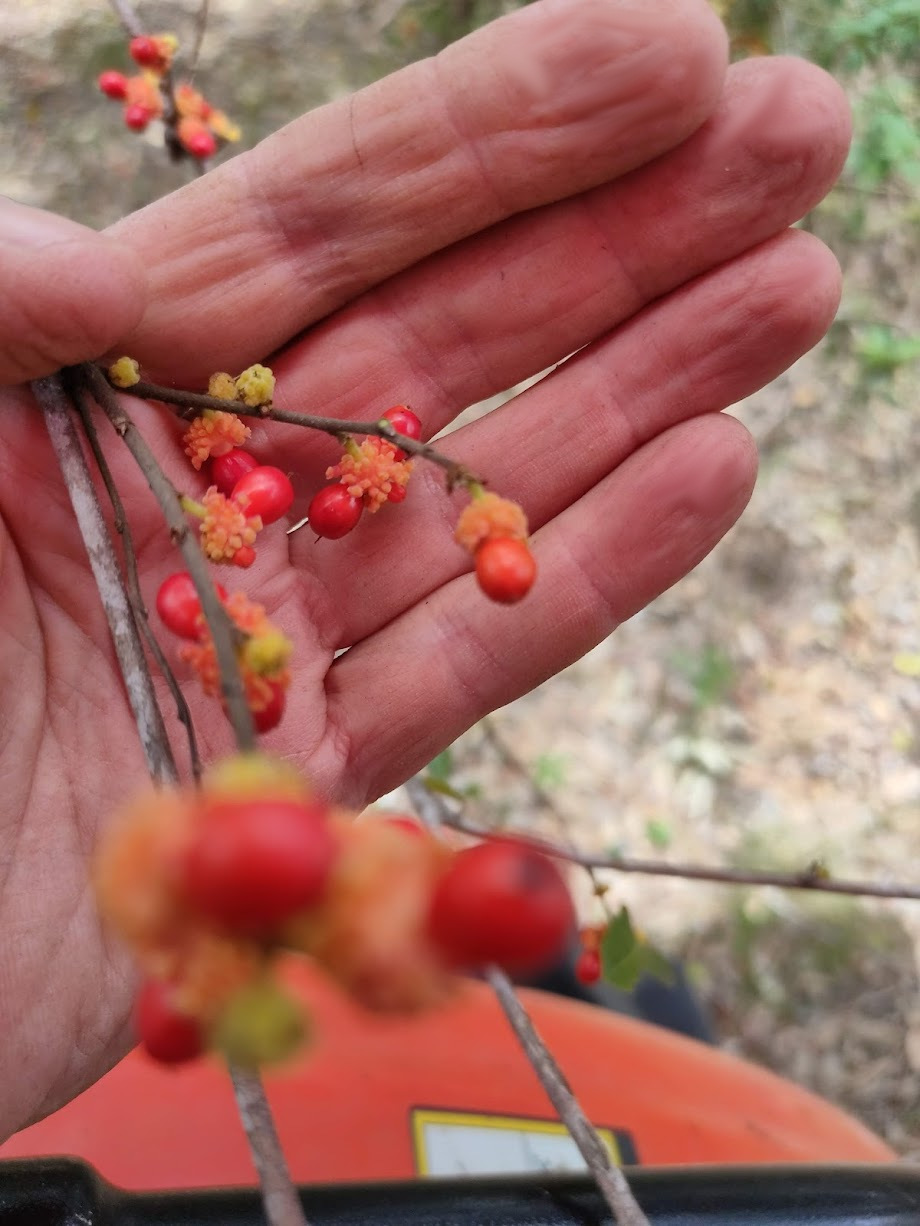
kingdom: Plantae
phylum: Tracheophyta
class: Magnoliopsida
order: Rosales
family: Moraceae
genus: Malaisia
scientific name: Malaisia scandens
